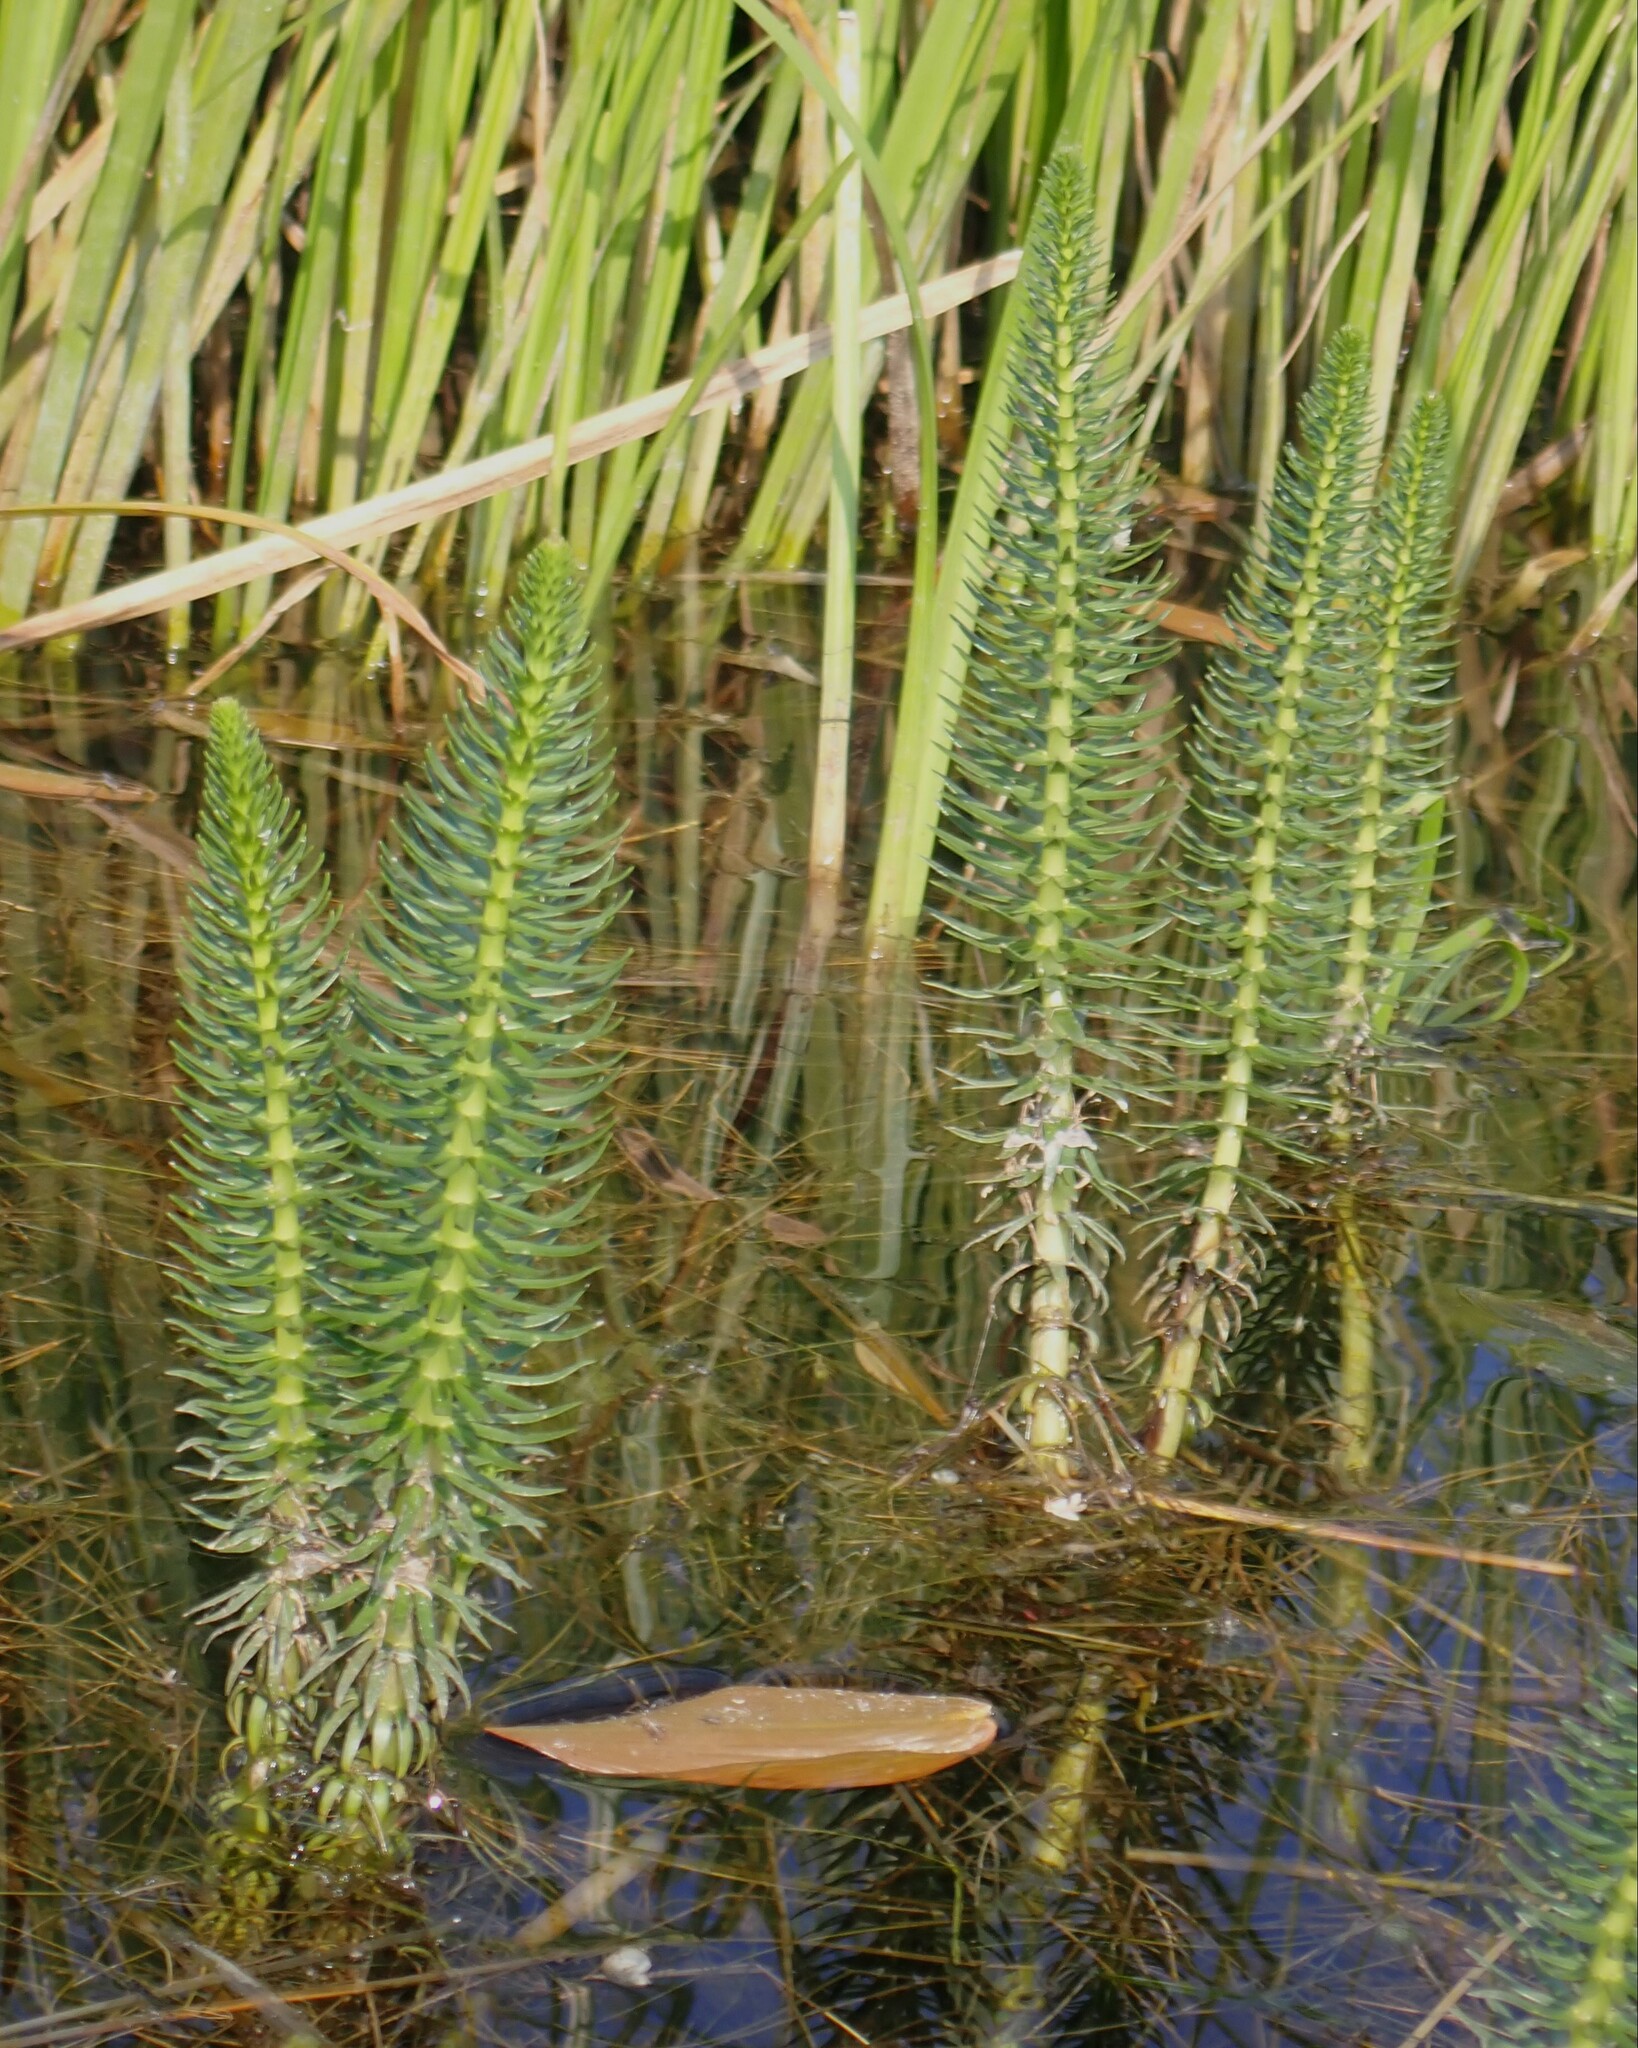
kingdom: Plantae
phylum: Tracheophyta
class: Magnoliopsida
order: Lamiales
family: Plantaginaceae
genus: Hippuris
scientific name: Hippuris vulgaris
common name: Mare's-tail
